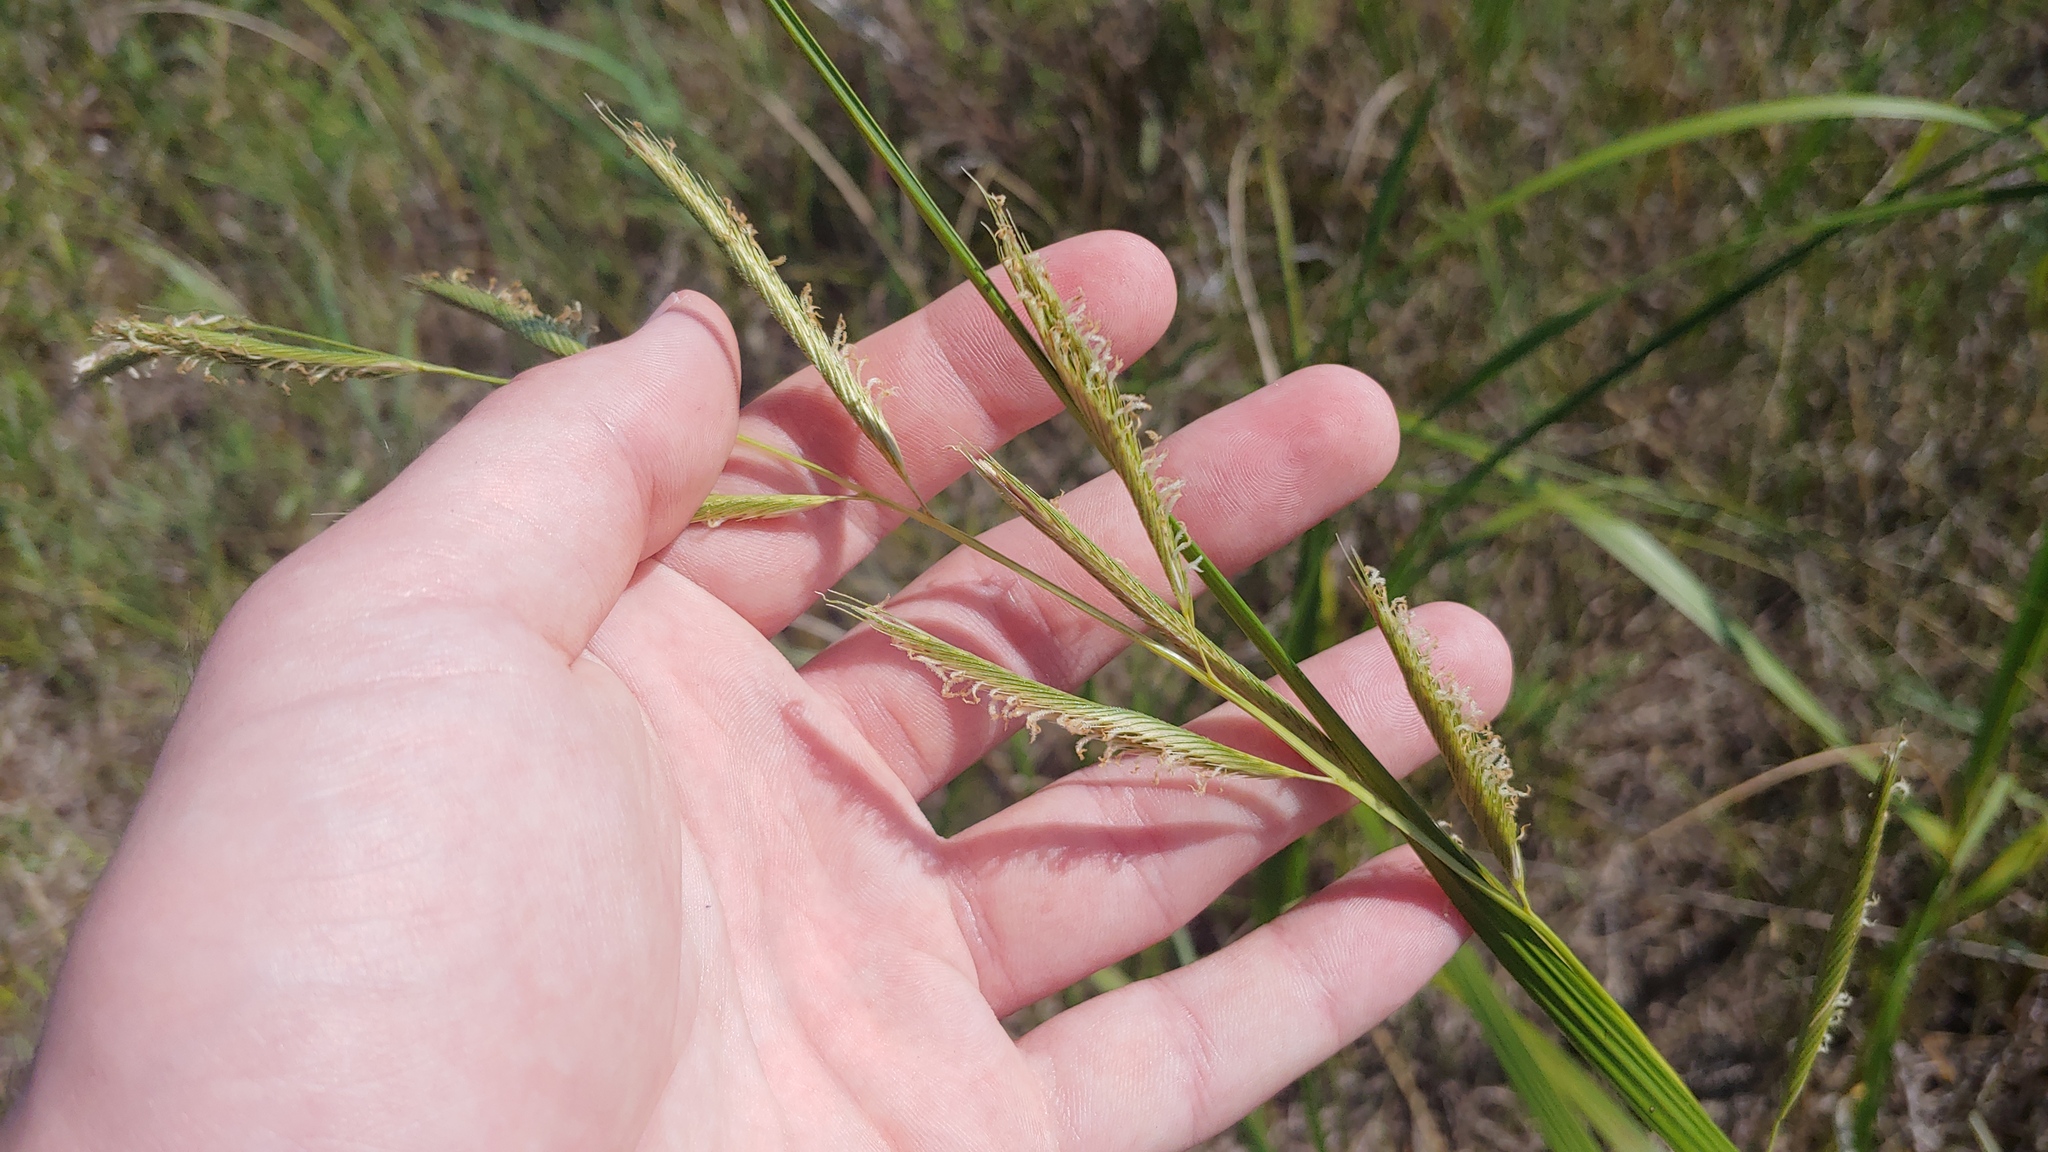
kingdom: Plantae
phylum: Tracheophyta
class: Liliopsida
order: Poales
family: Poaceae
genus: Sporobolus
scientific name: Sporobolus michauxianus
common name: Freshwater cordgrass
